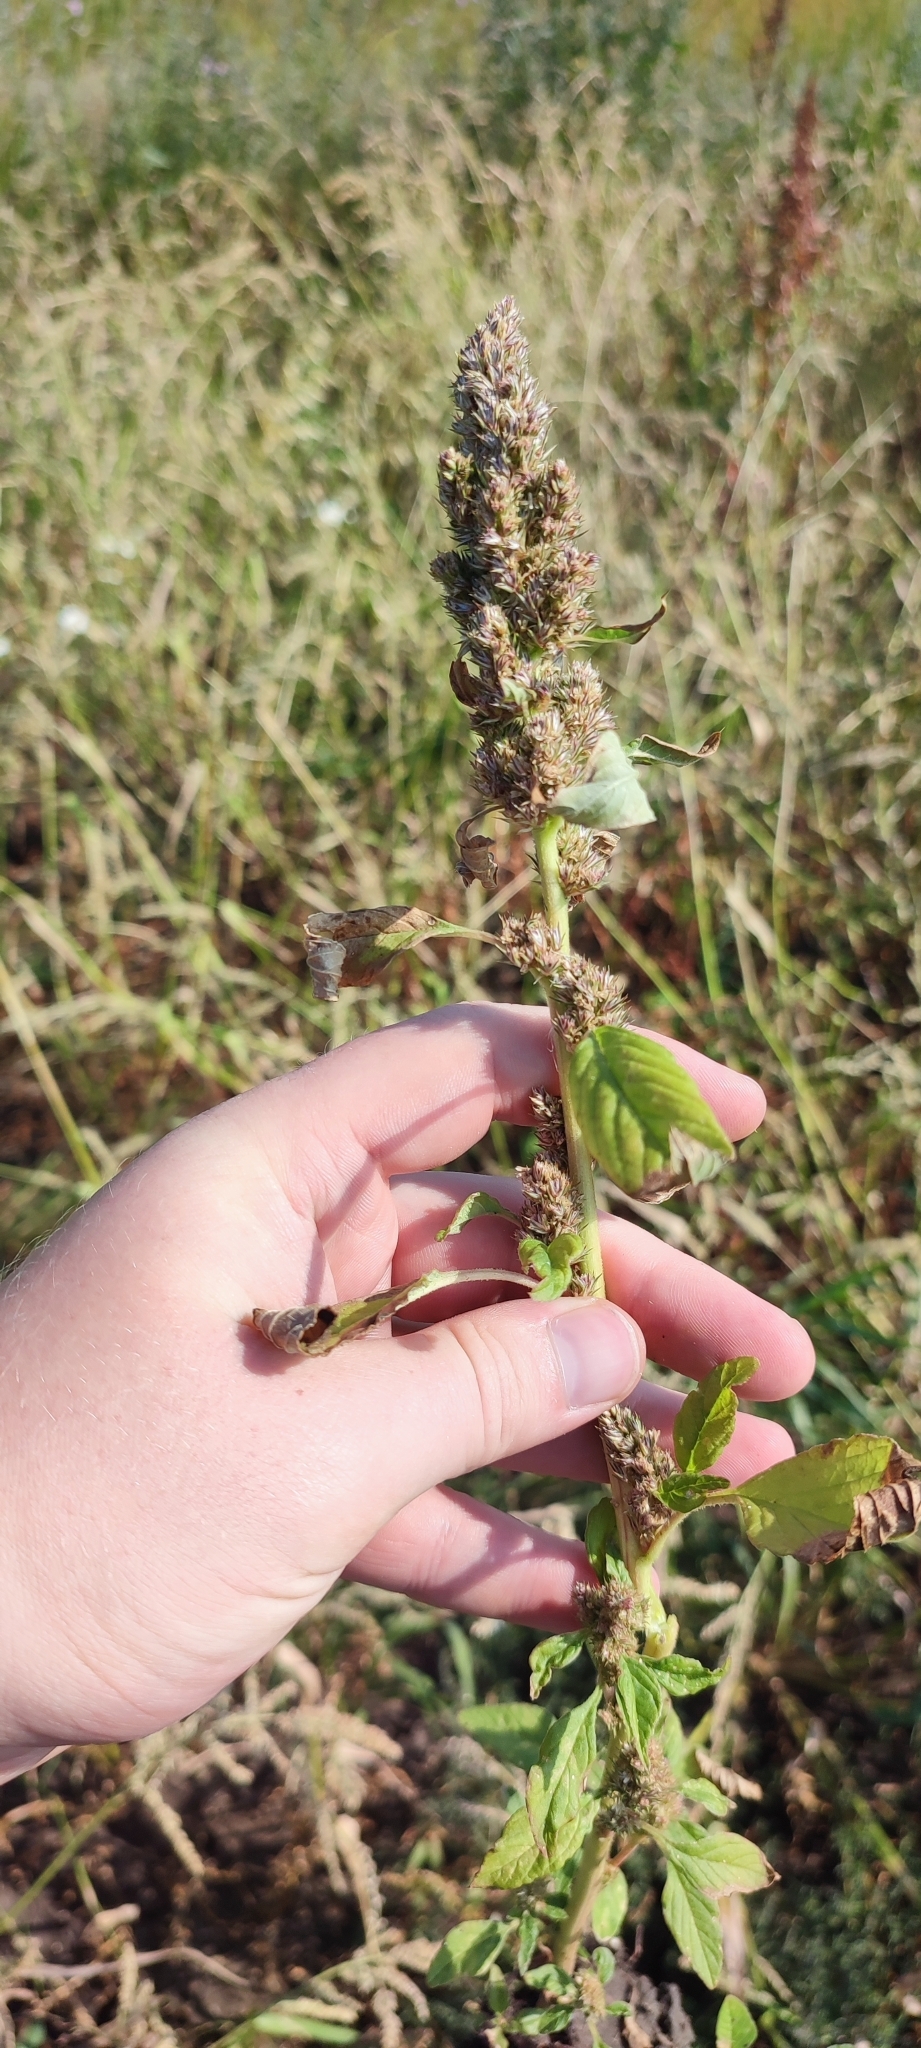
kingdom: Plantae
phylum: Tracheophyta
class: Magnoliopsida
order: Caryophyllales
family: Amaranthaceae
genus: Amaranthus
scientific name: Amaranthus retroflexus
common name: Redroot amaranth
